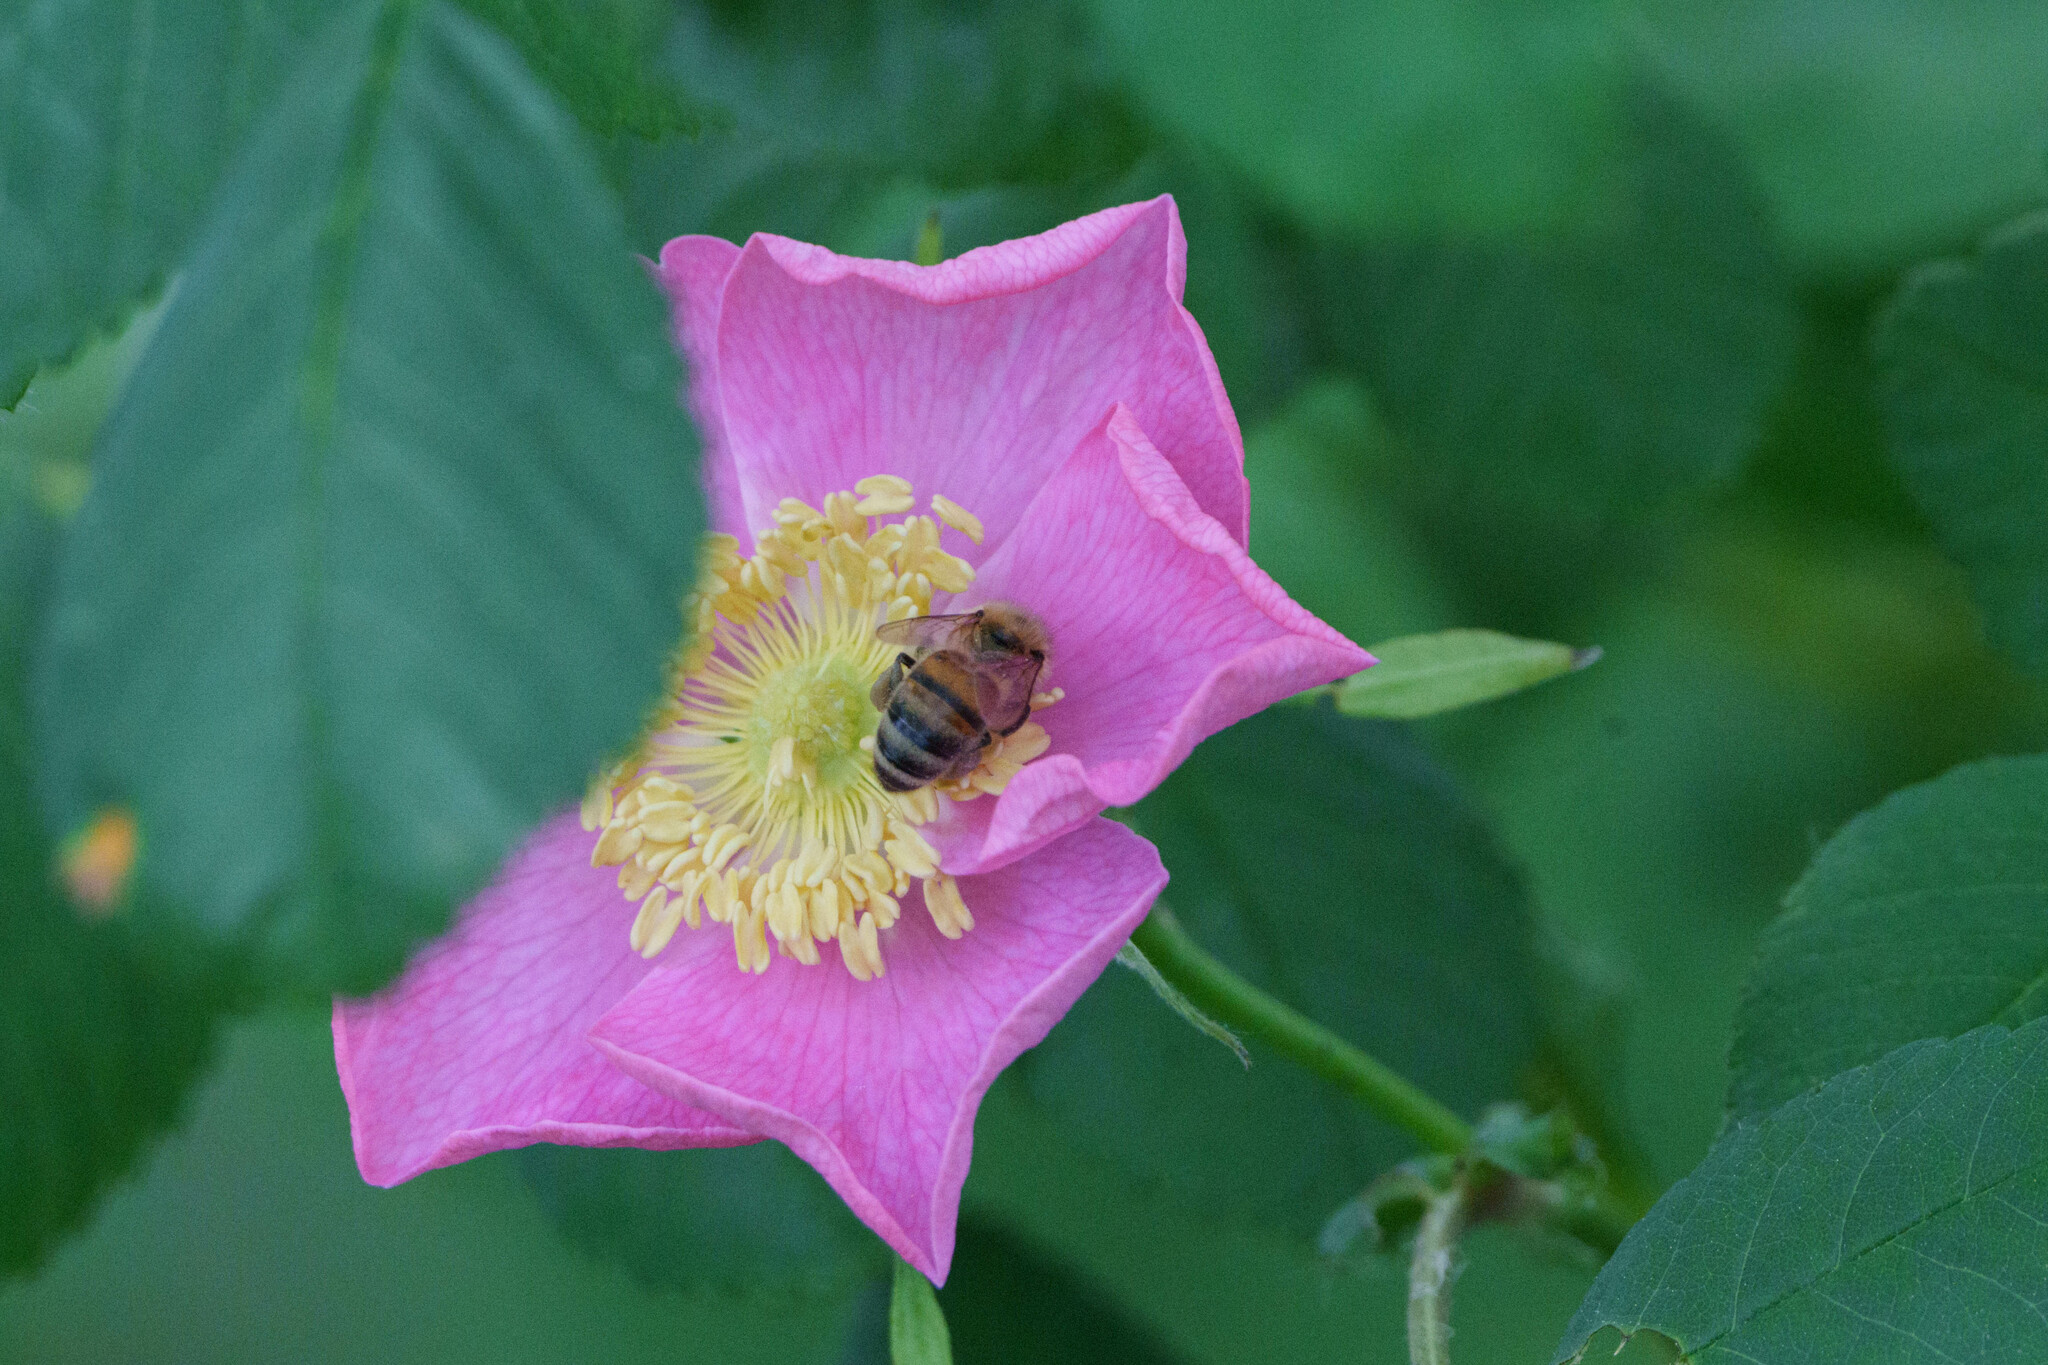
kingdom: Animalia
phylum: Arthropoda
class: Insecta
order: Hymenoptera
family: Apidae
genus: Apis
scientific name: Apis mellifera
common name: Honey bee
